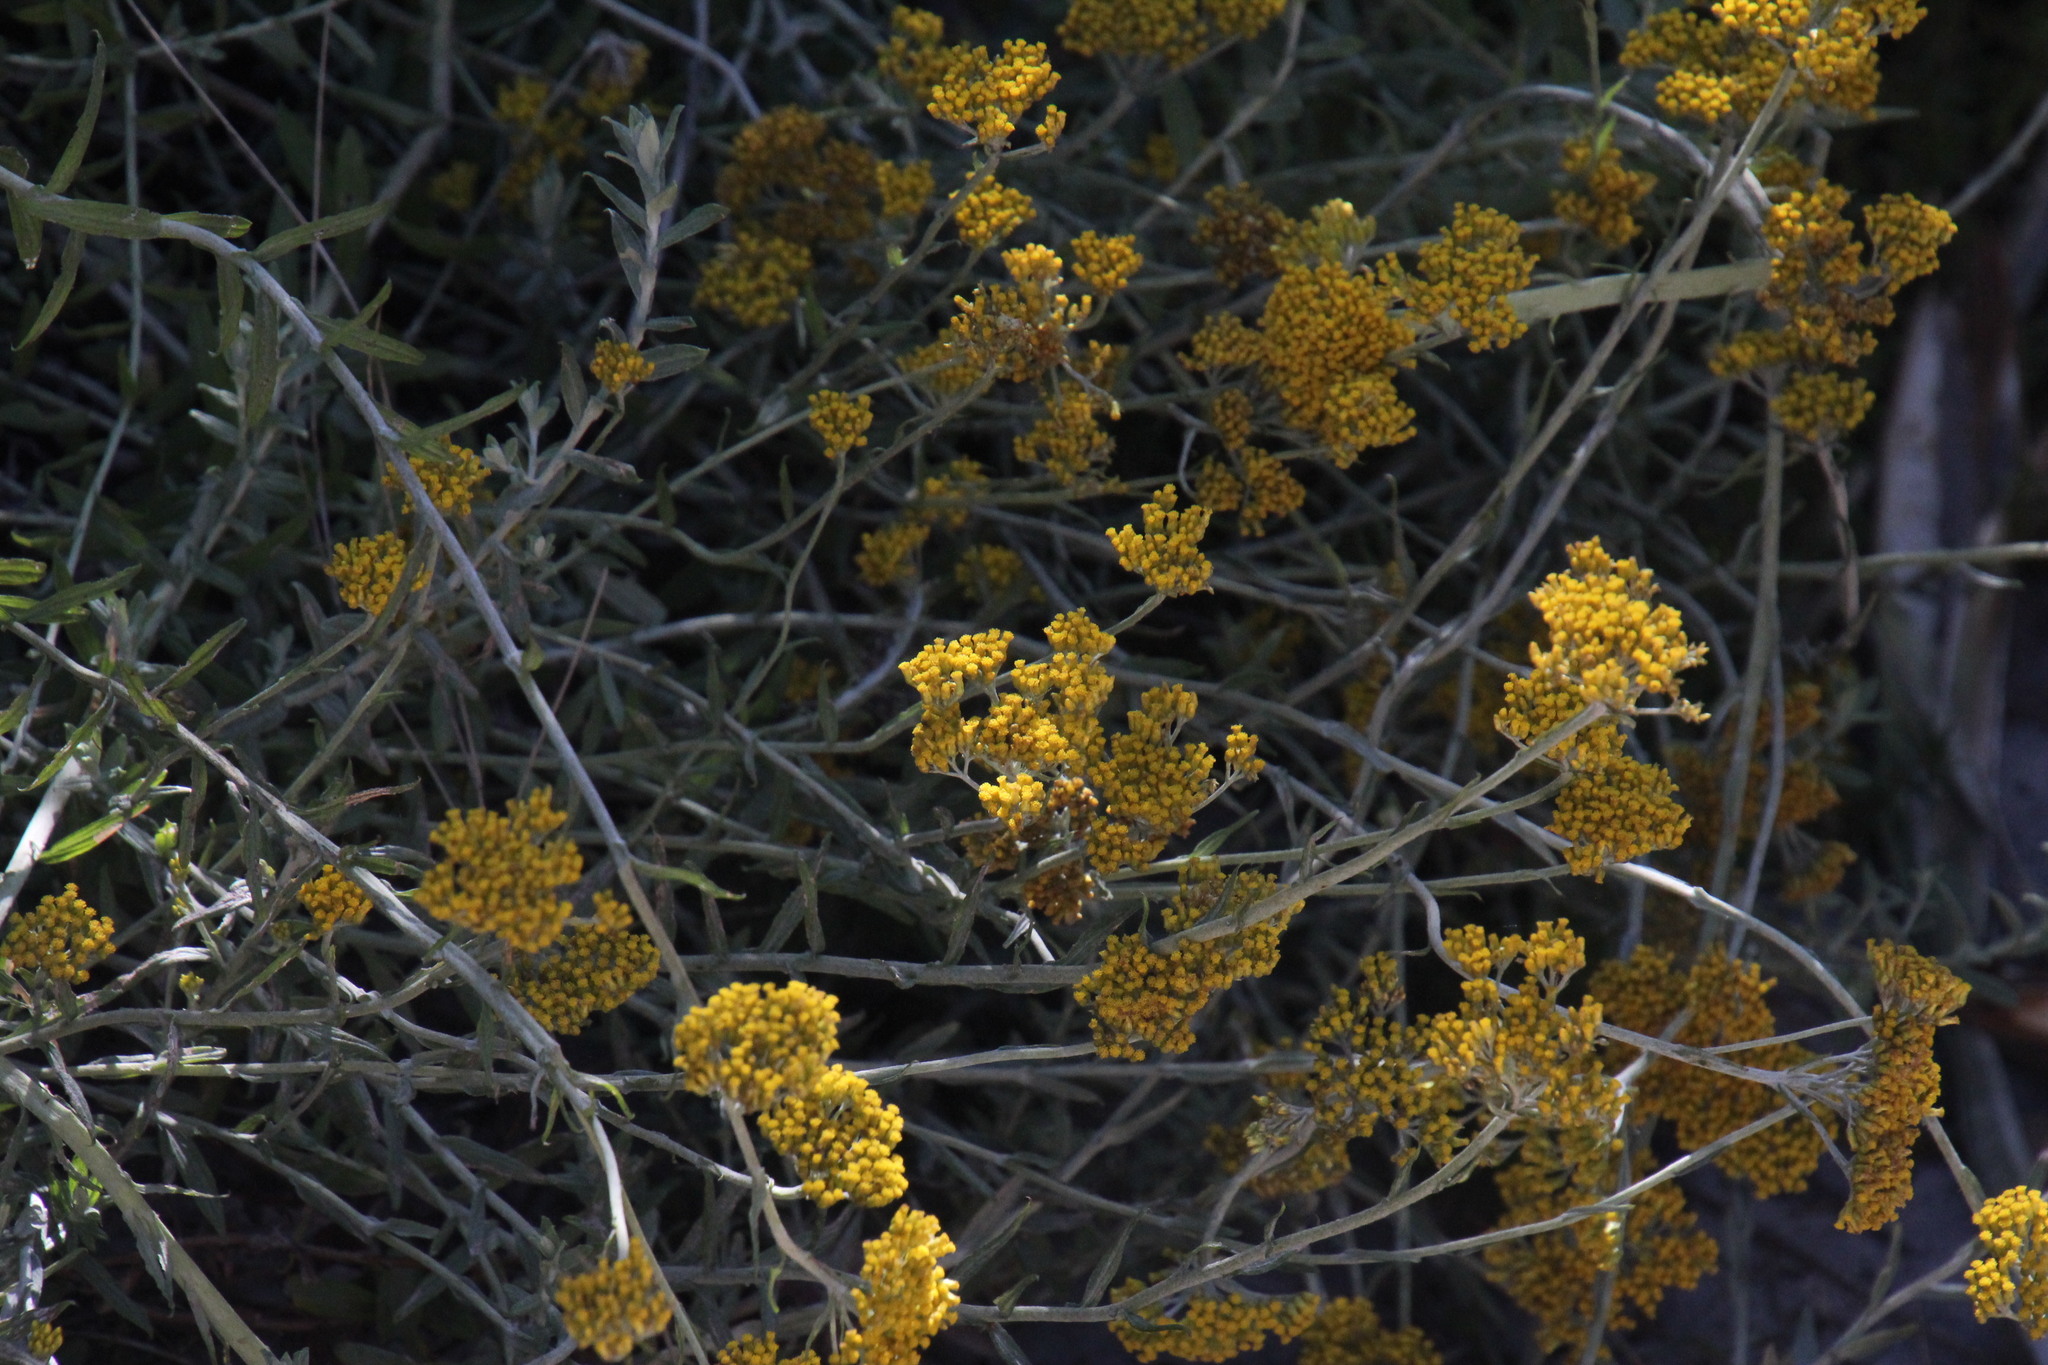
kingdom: Plantae
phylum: Tracheophyta
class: Magnoliopsida
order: Asterales
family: Asteraceae
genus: Helichrysum
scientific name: Helichrysum cymosum
